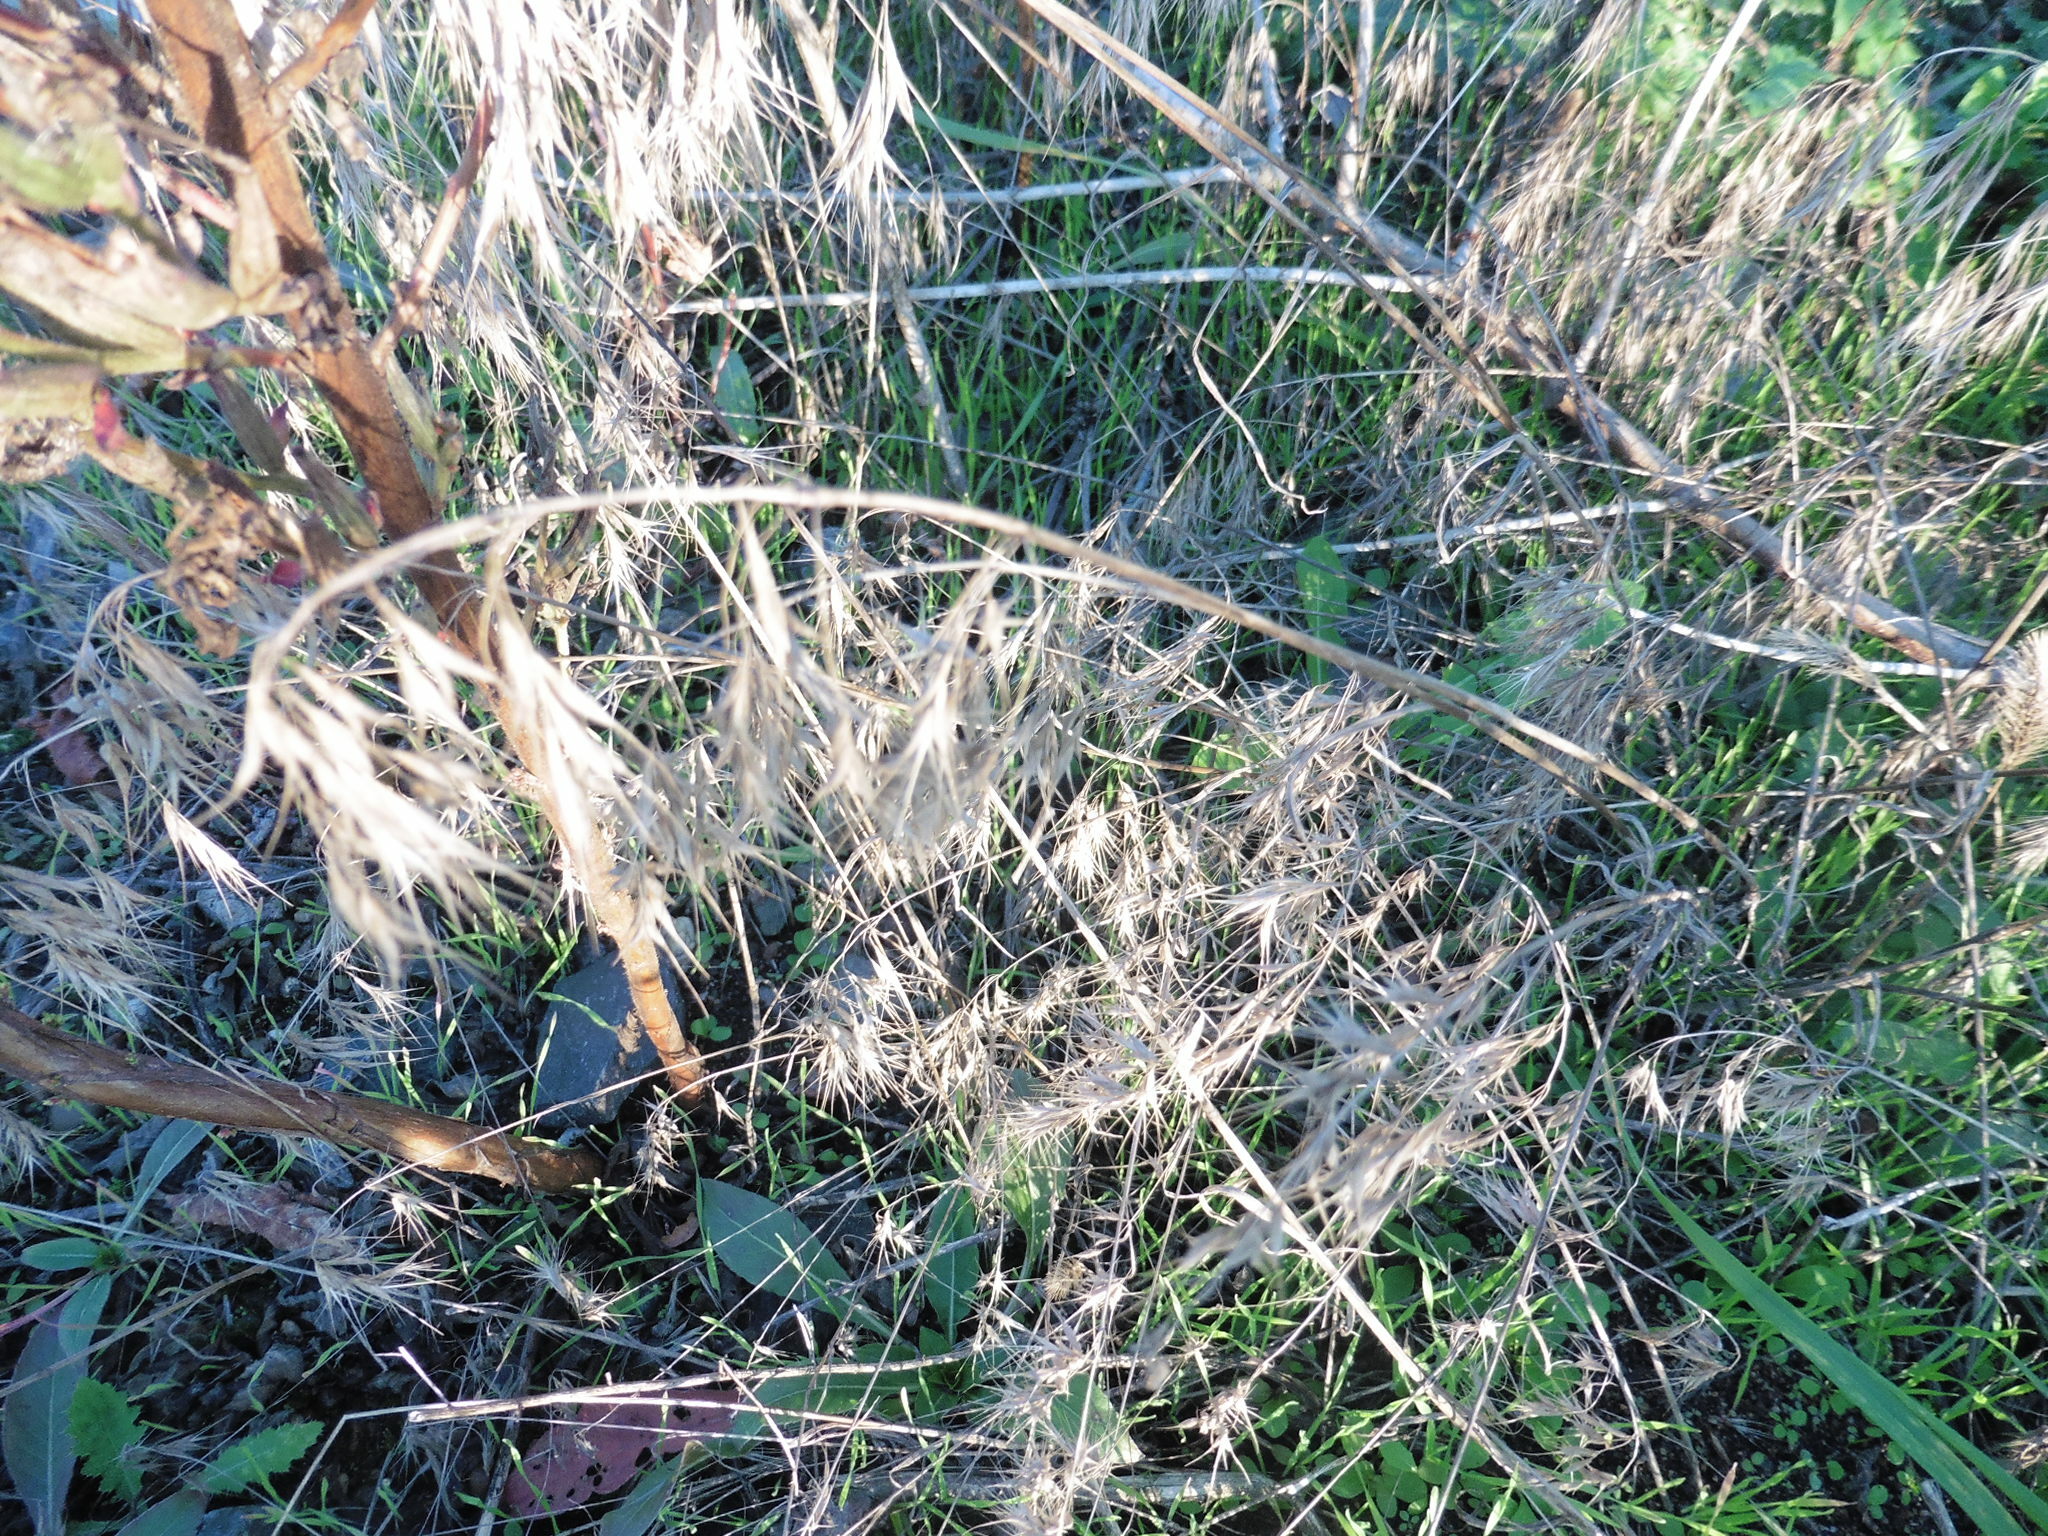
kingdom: Plantae
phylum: Tracheophyta
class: Liliopsida
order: Poales
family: Poaceae
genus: Bromus
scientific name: Bromus tectorum
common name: Cheatgrass
